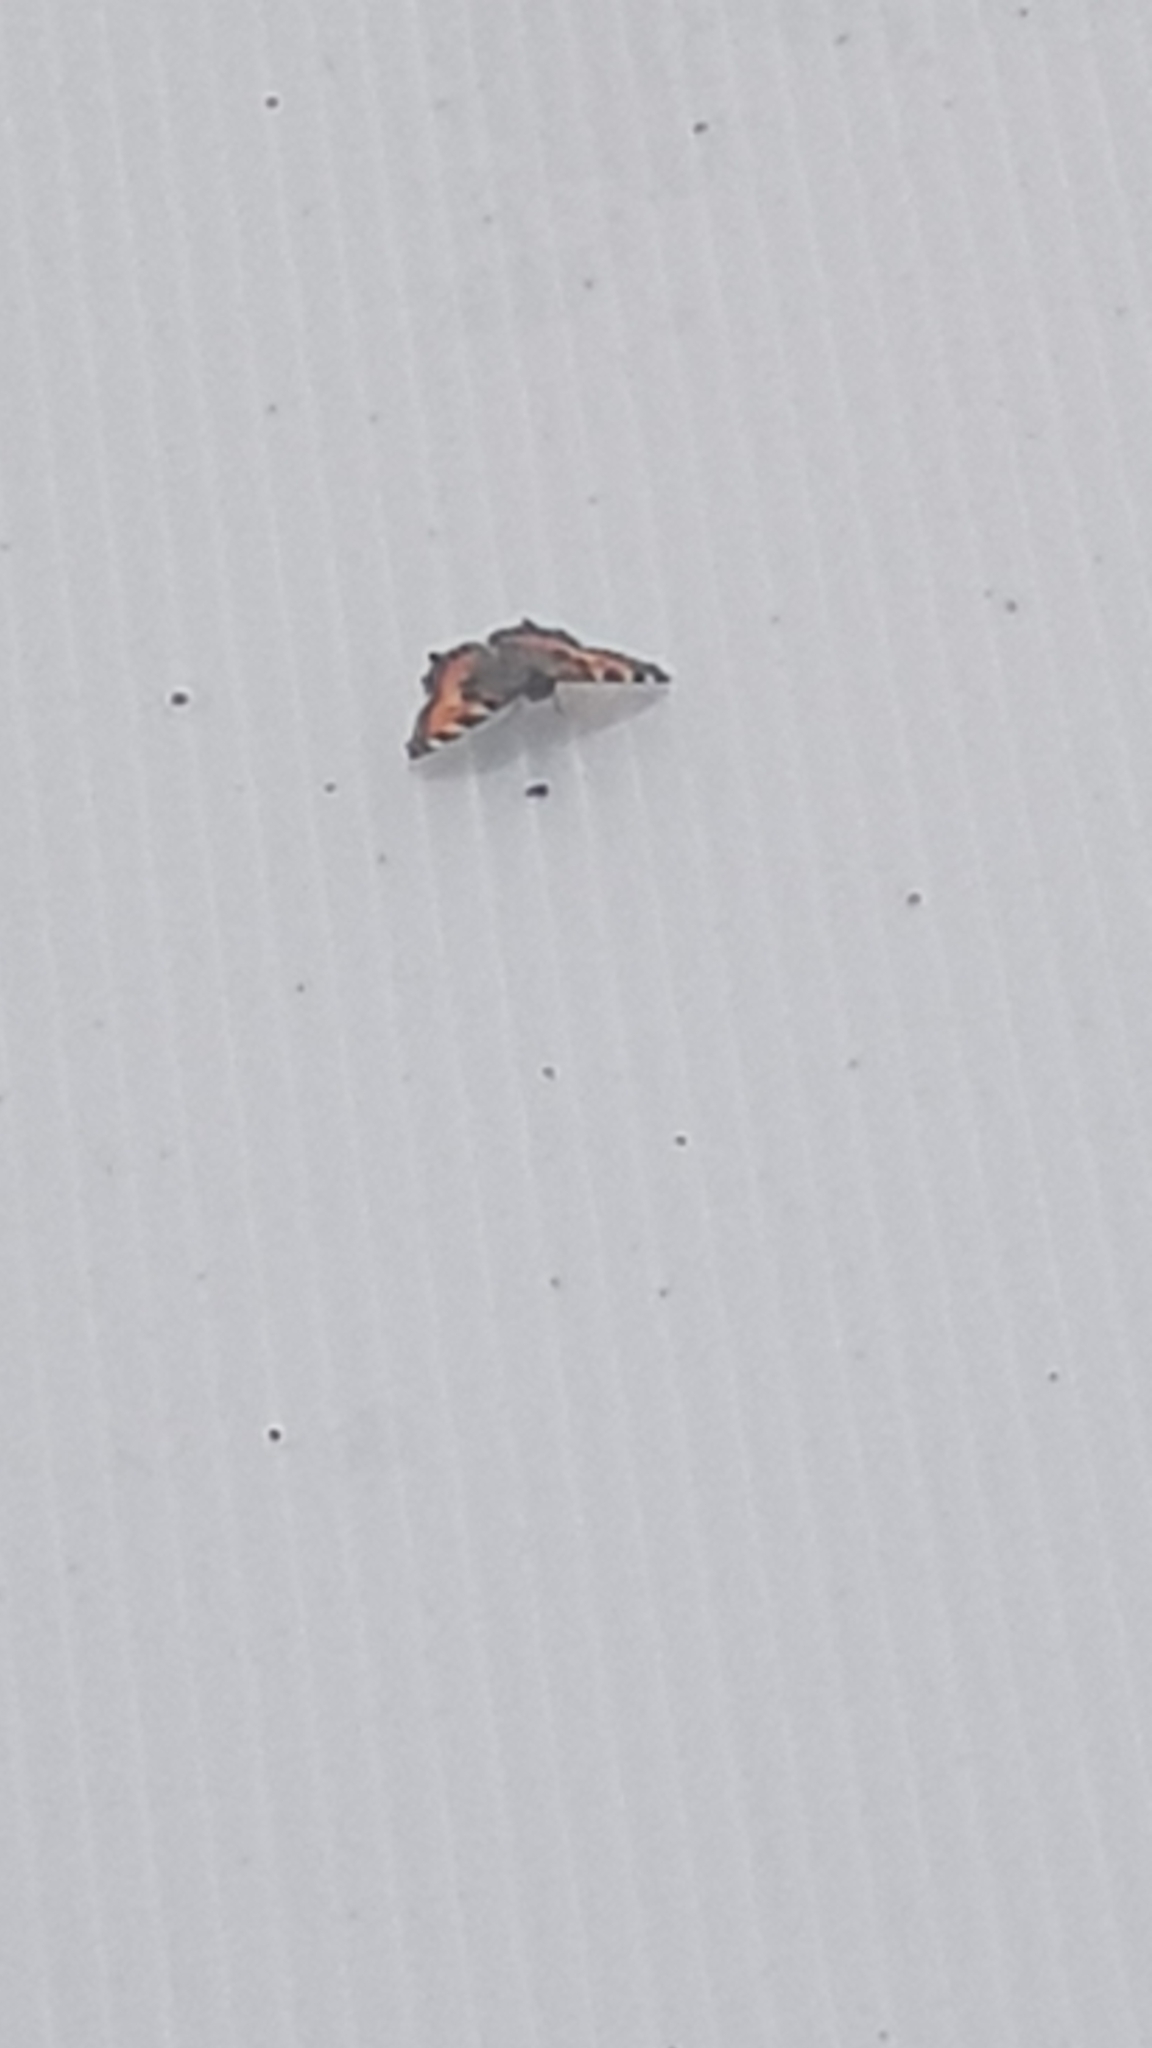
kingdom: Animalia
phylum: Arthropoda
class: Insecta
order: Lepidoptera
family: Nymphalidae
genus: Aglais
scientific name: Aglais urticae
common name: Small tortoiseshell
